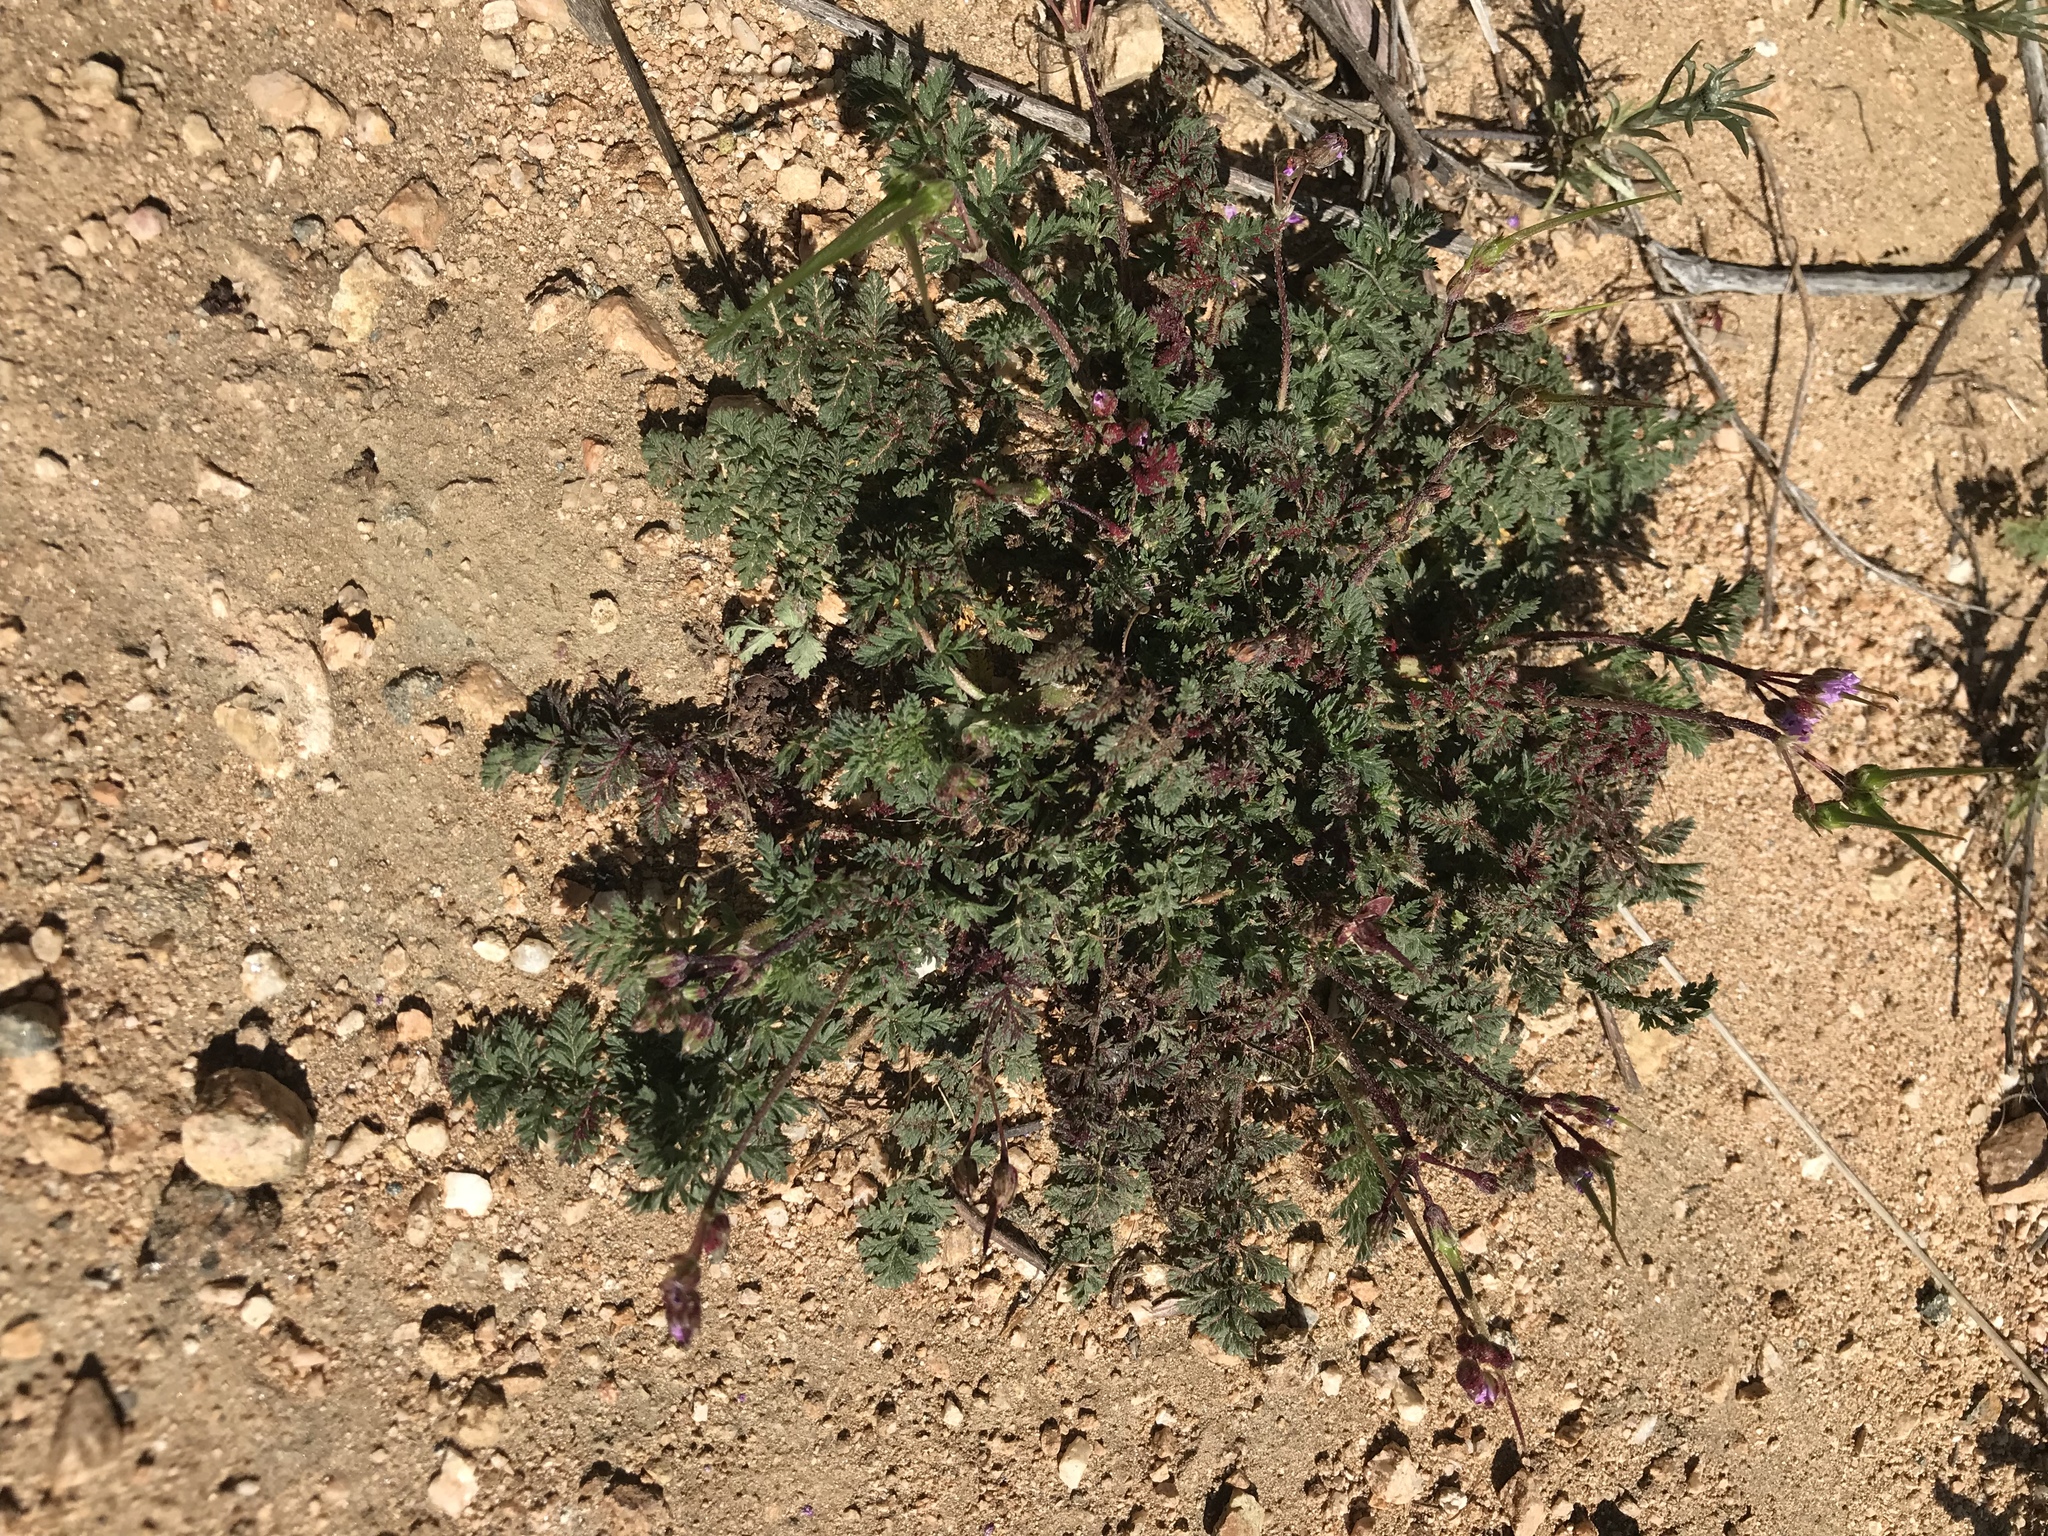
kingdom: Plantae
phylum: Tracheophyta
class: Magnoliopsida
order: Geraniales
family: Geraniaceae
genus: Erodium
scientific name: Erodium cicutarium
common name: Common stork's-bill
